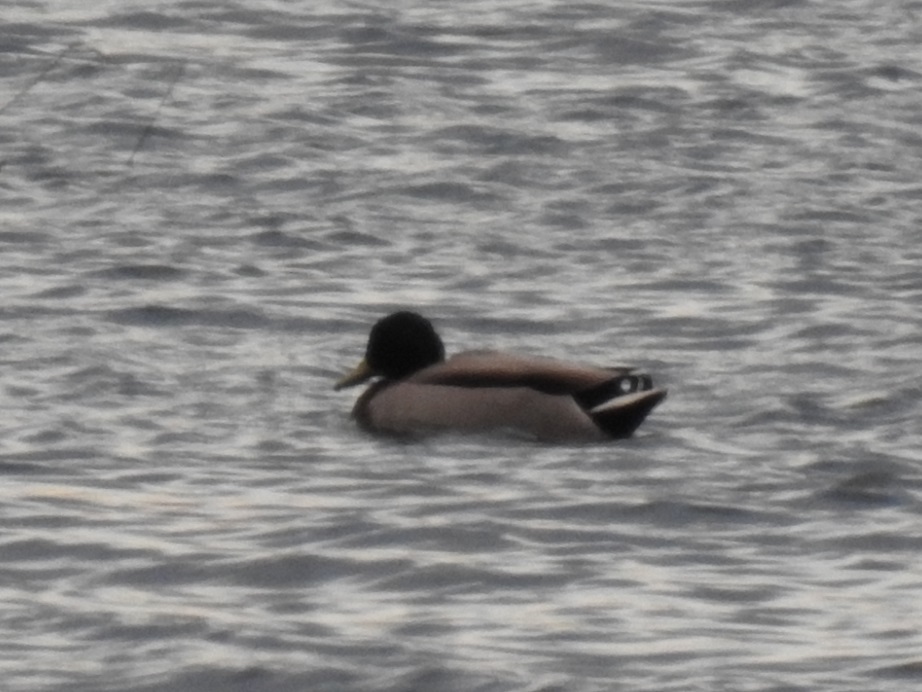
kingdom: Animalia
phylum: Chordata
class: Aves
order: Anseriformes
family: Anatidae
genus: Anas
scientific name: Anas platyrhynchos
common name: Mallard
